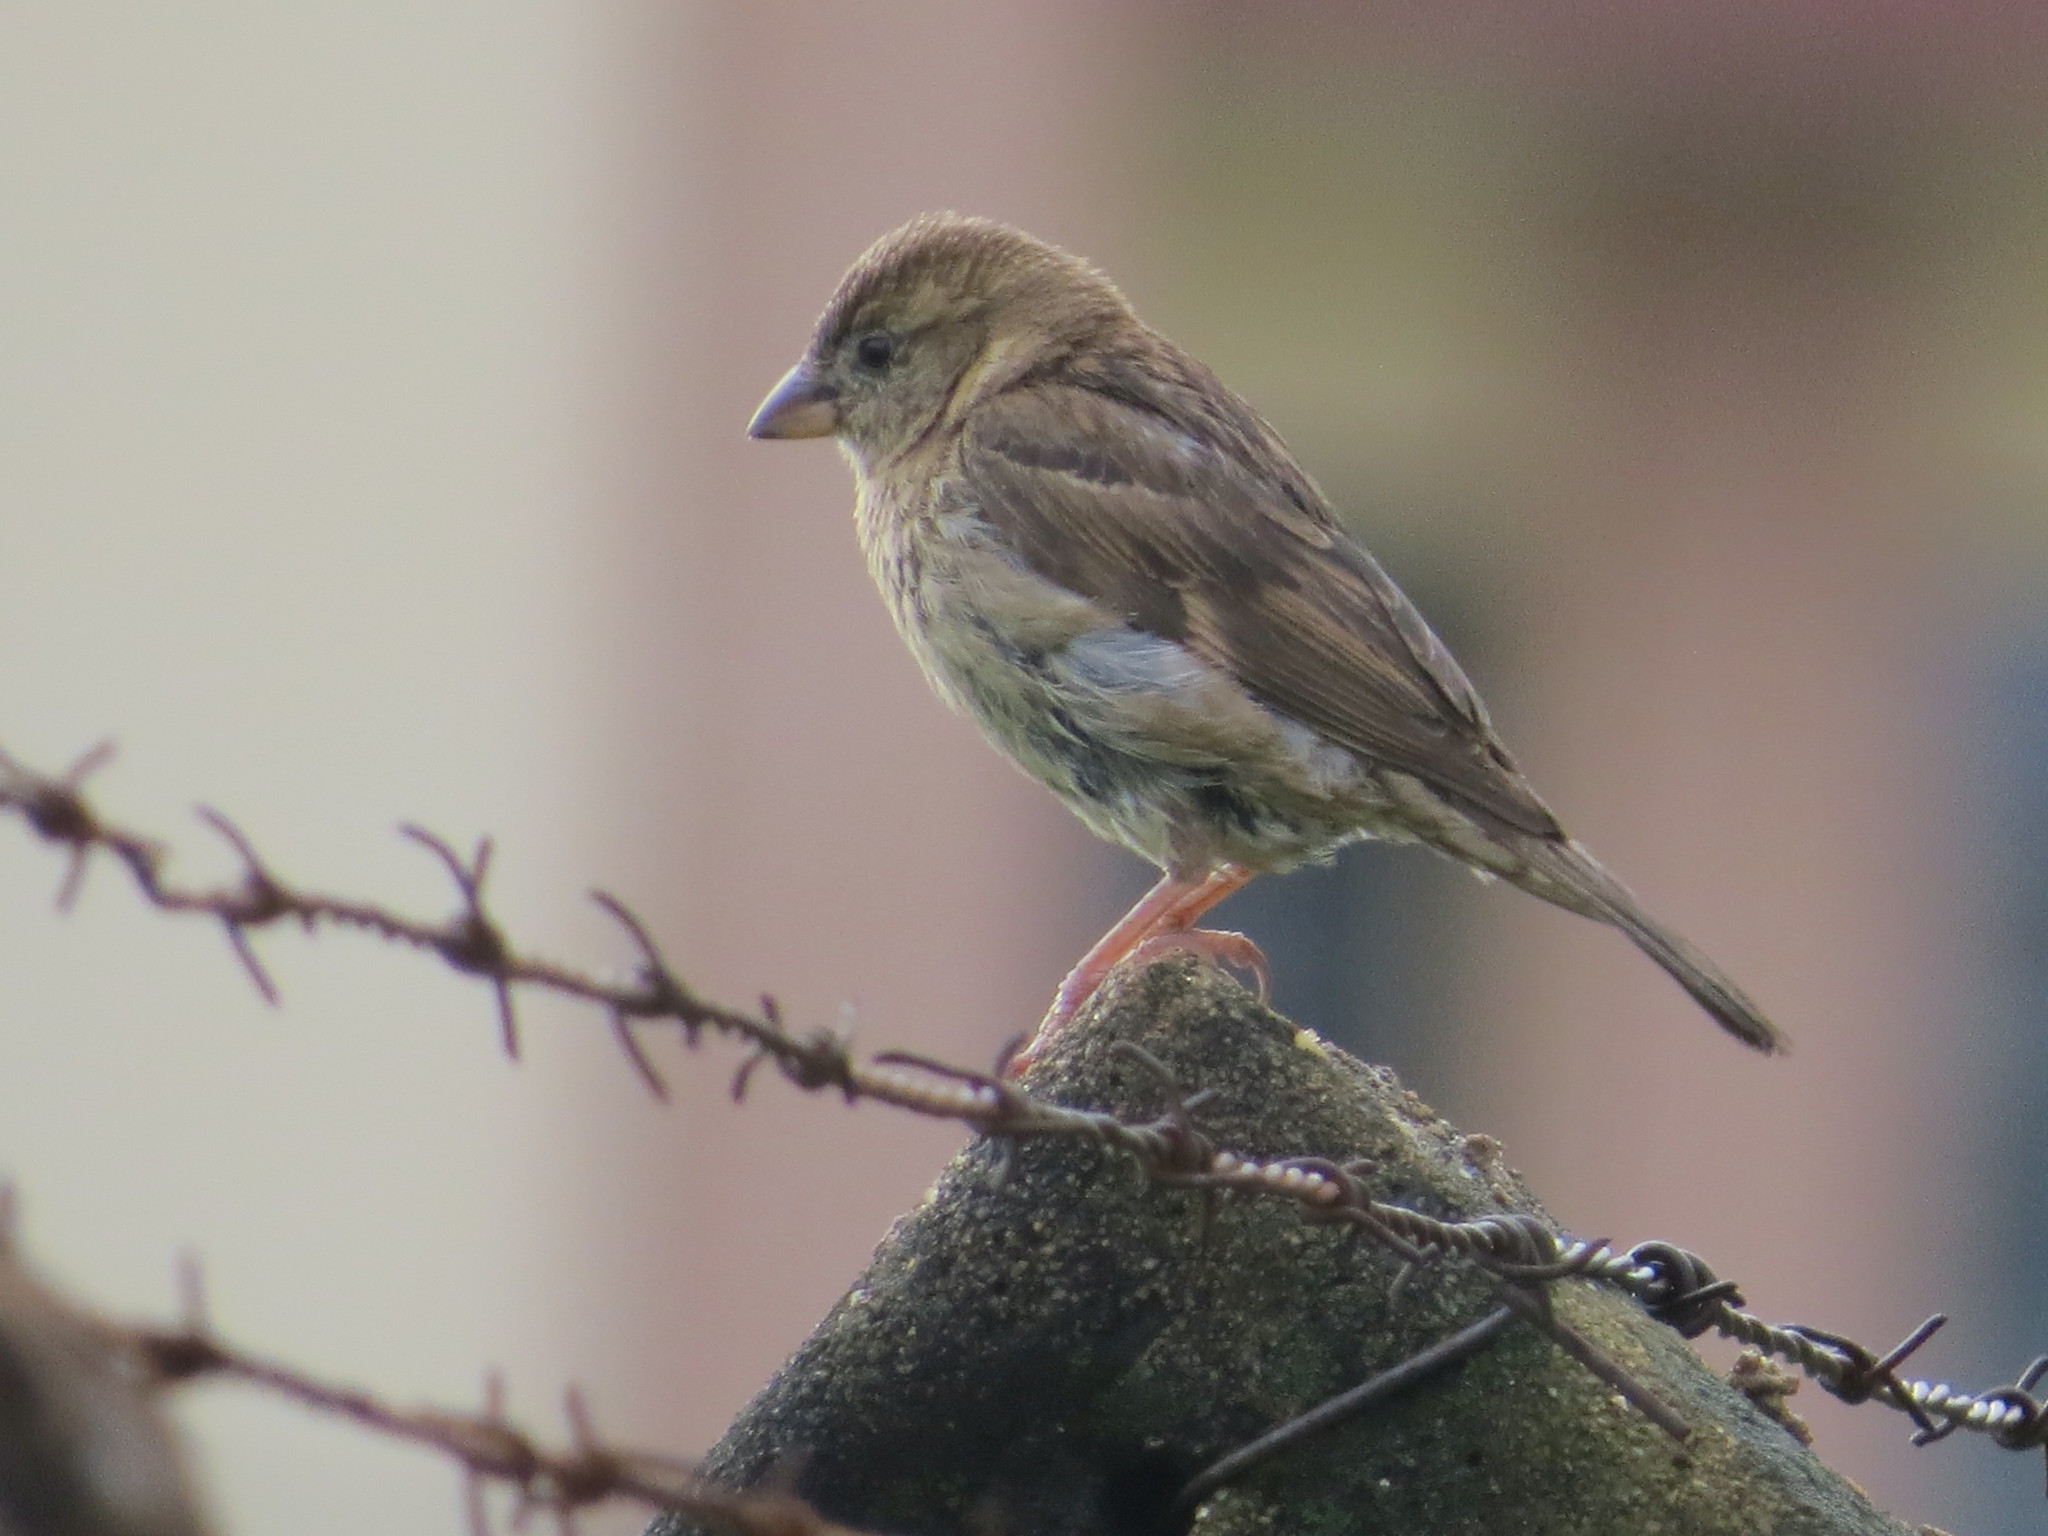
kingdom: Animalia
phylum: Chordata
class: Aves
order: Passeriformes
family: Passeridae
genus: Passer
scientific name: Passer domesticus
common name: House sparrow
